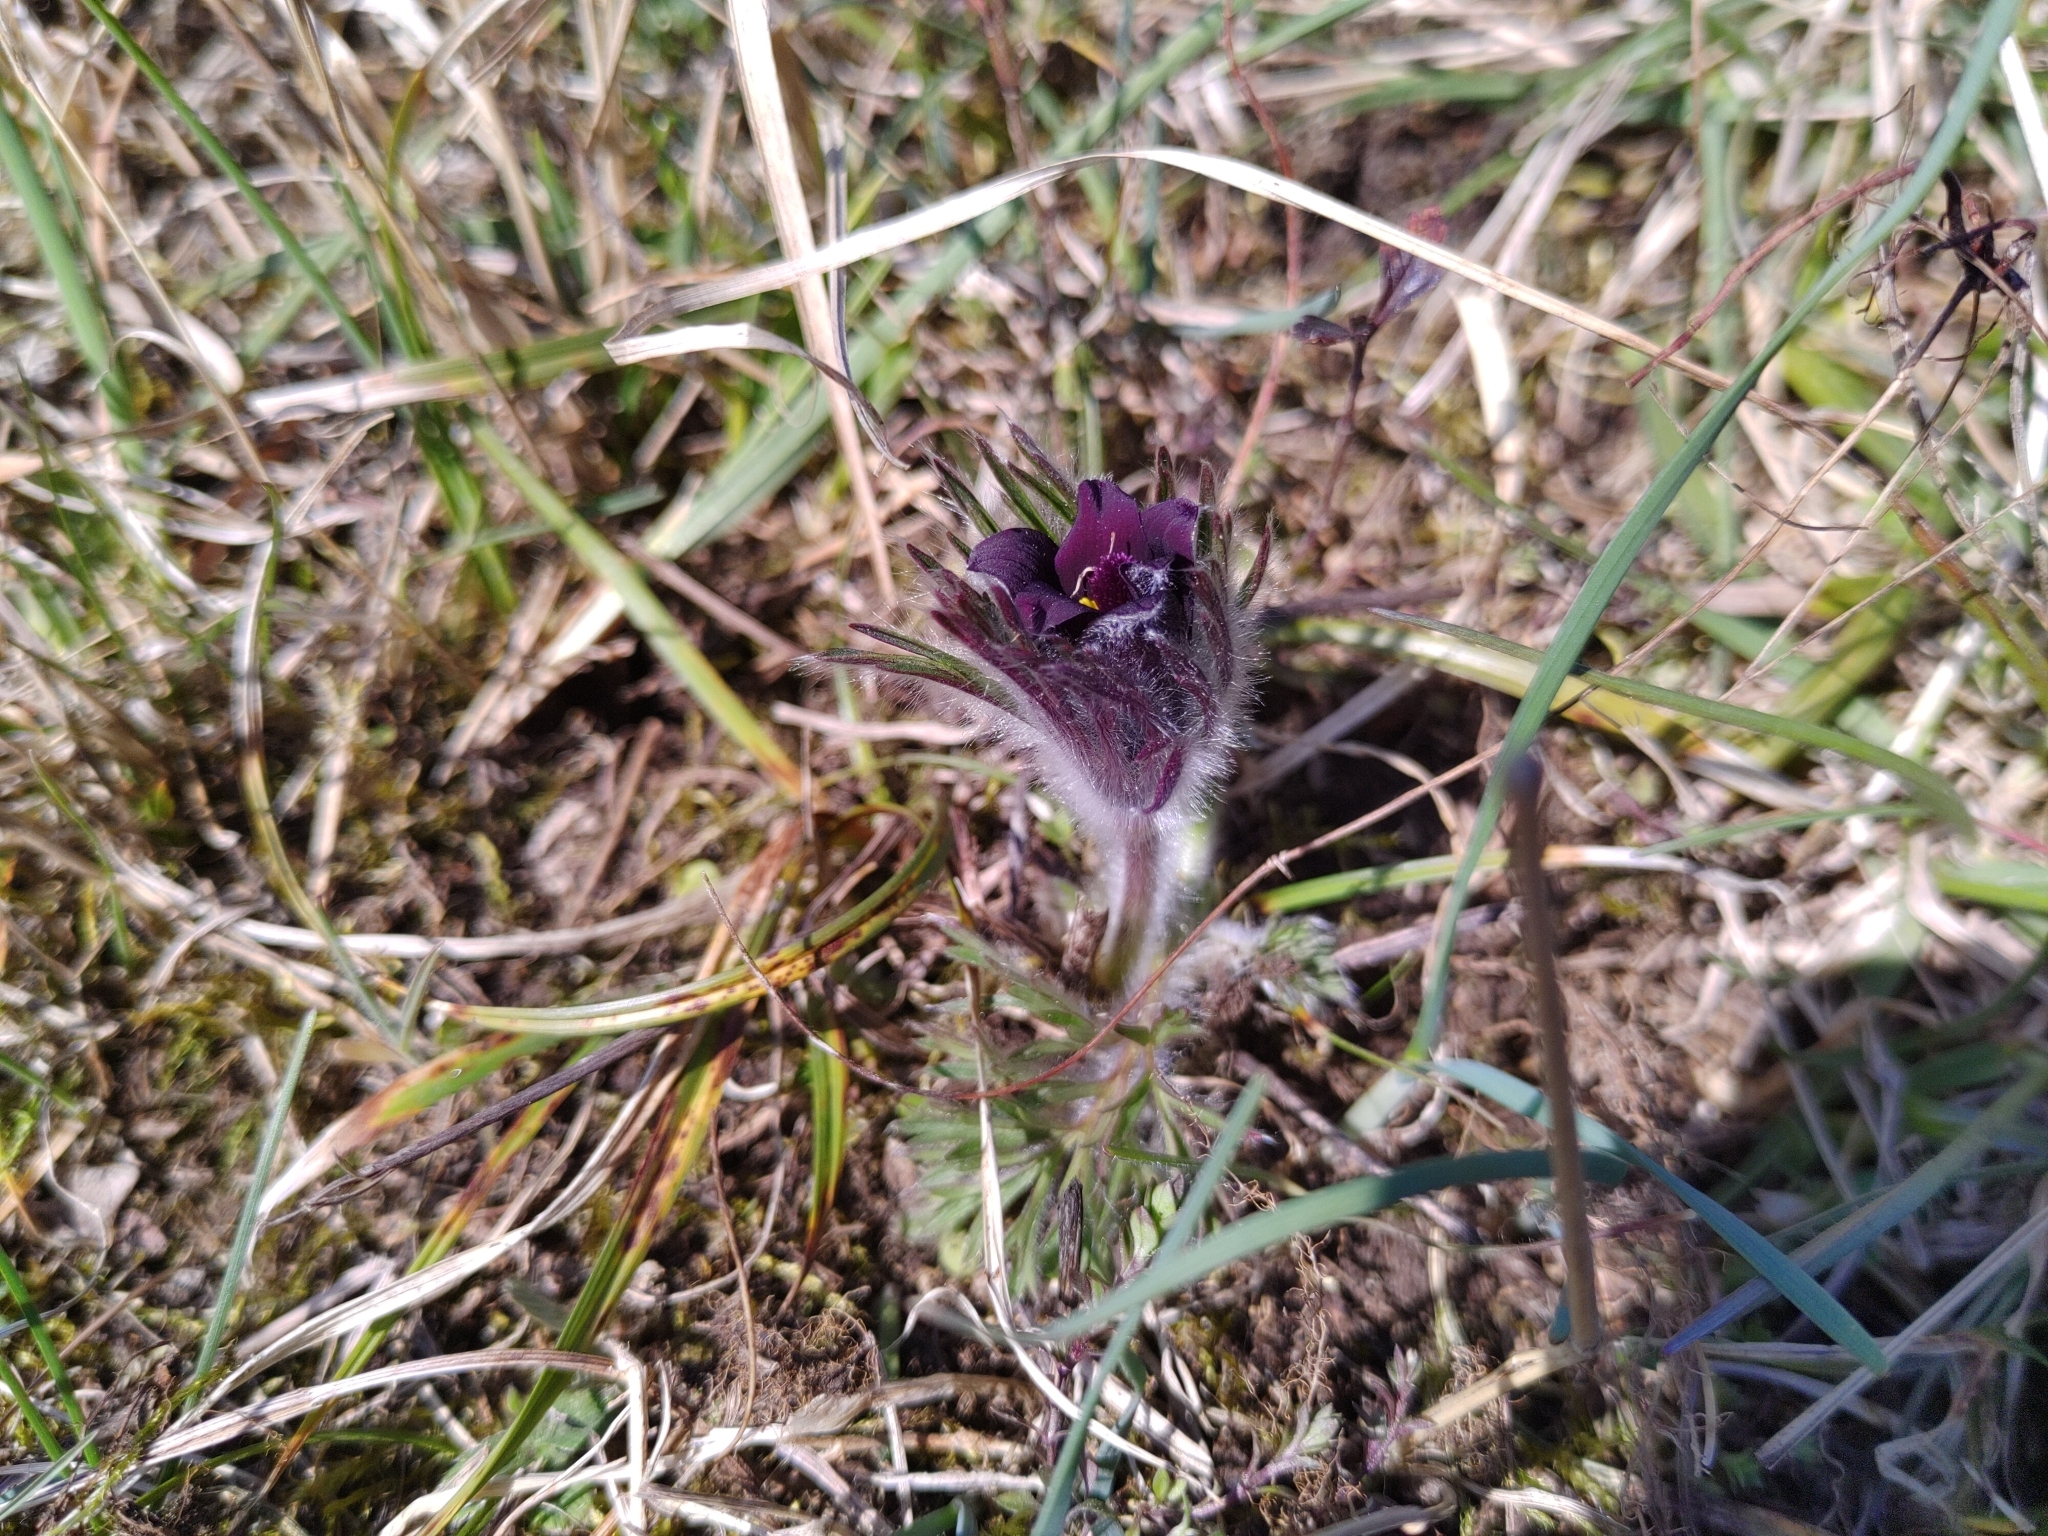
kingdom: Plantae
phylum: Tracheophyta
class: Magnoliopsida
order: Ranunculales
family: Ranunculaceae
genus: Pulsatilla
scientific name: Pulsatilla pratensis
